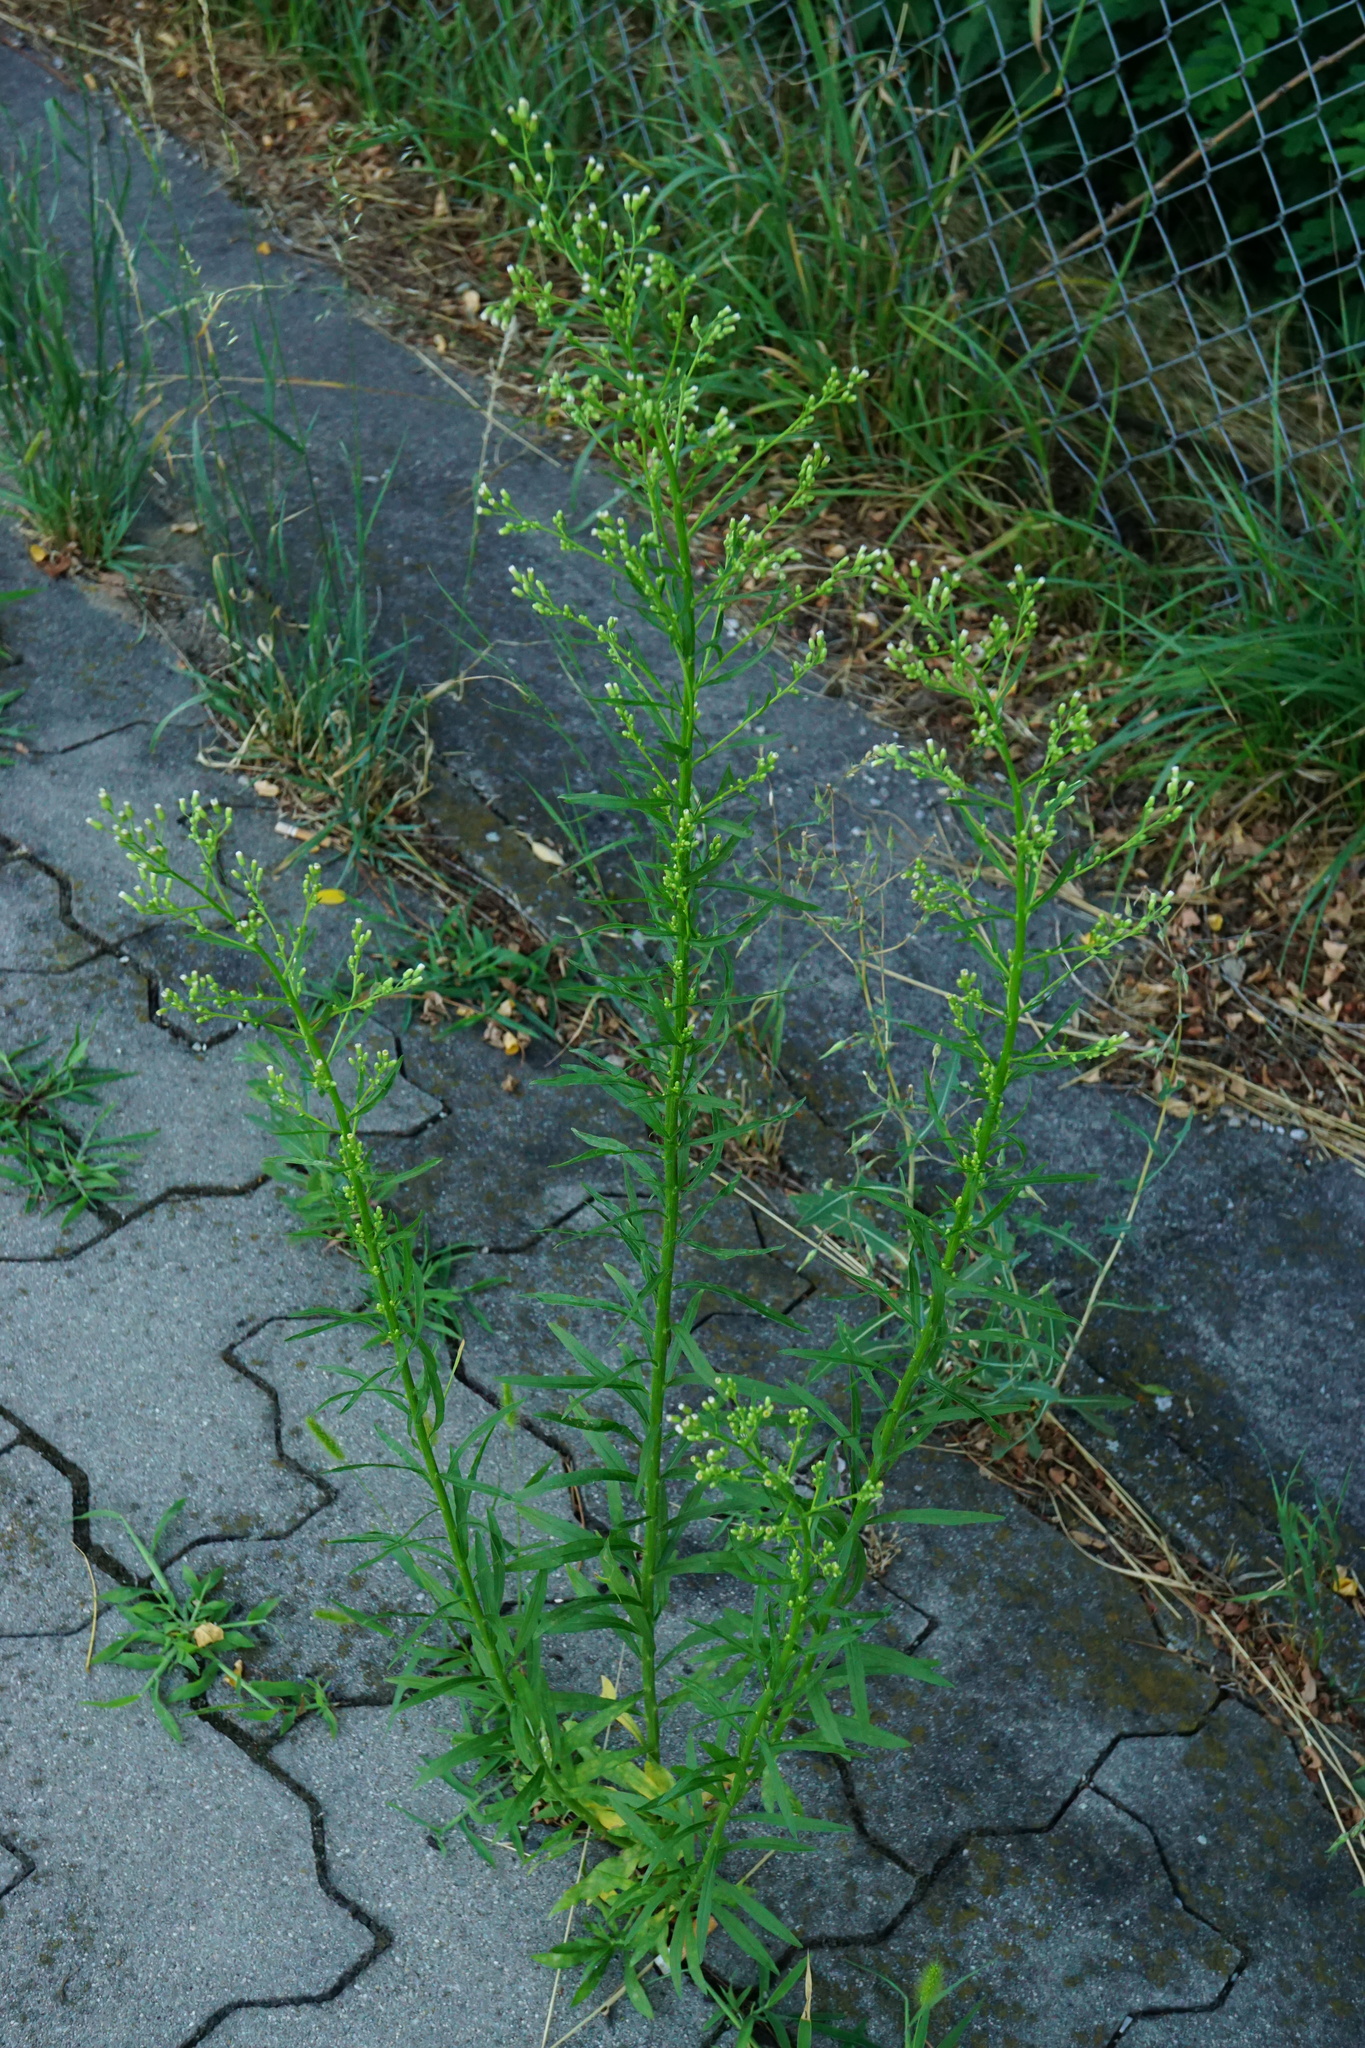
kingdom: Plantae
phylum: Tracheophyta
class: Magnoliopsida
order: Asterales
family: Asteraceae
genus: Erigeron
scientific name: Erigeron canadensis
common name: Canadian fleabane
